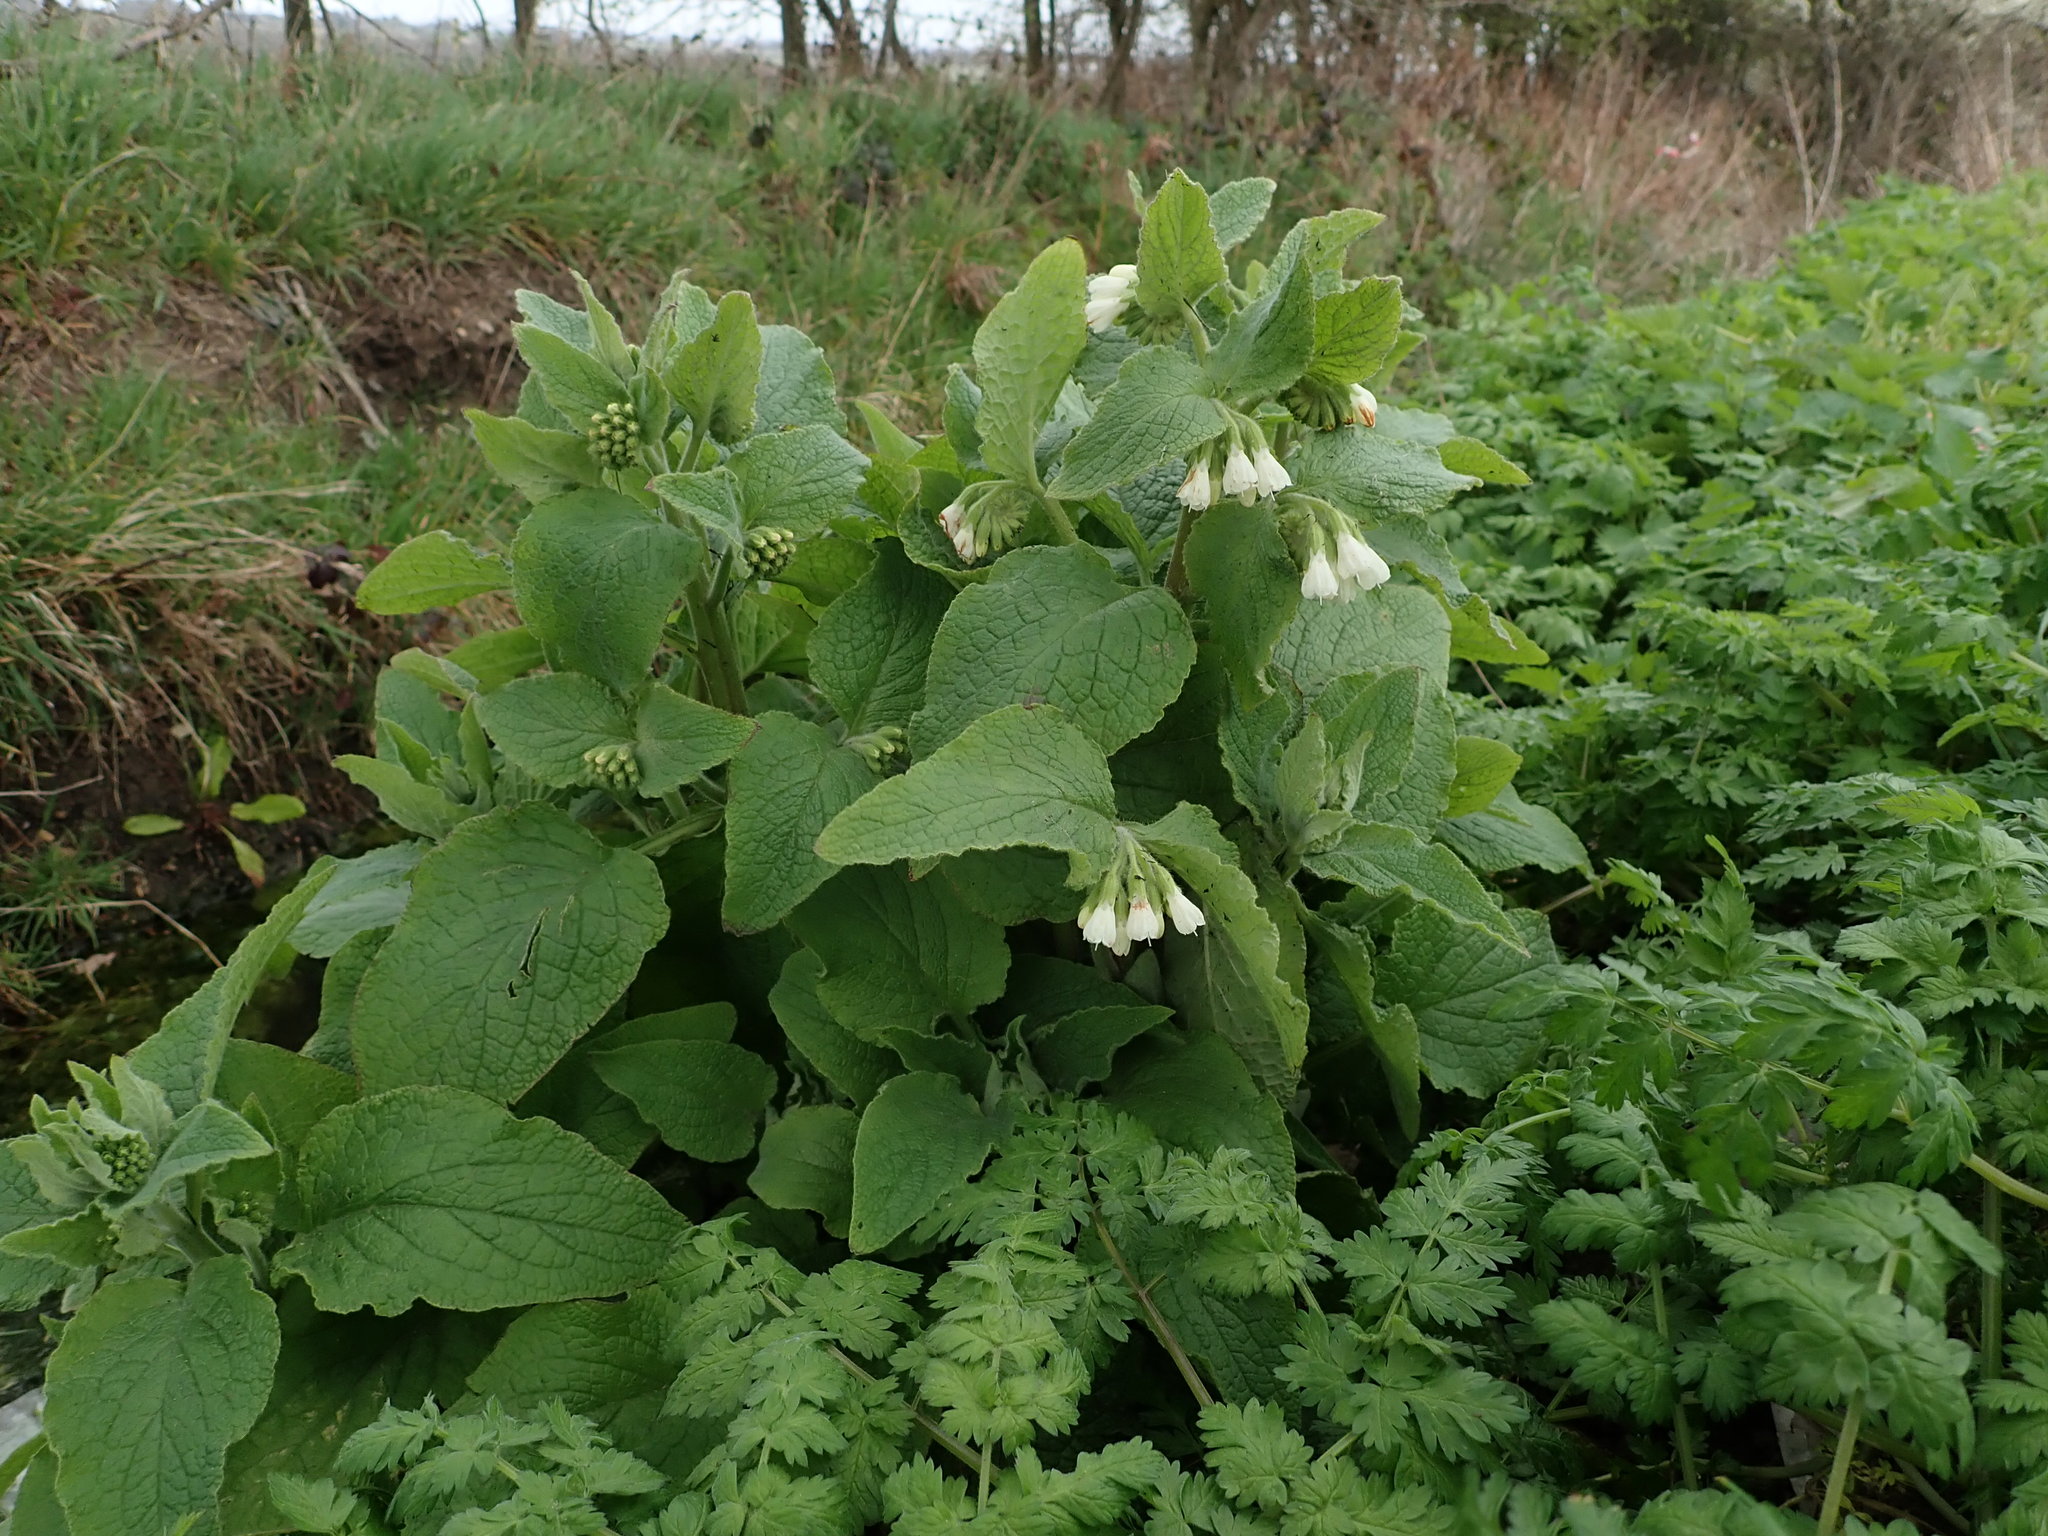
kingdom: Plantae
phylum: Tracheophyta
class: Magnoliopsida
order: Boraginales
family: Boraginaceae
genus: Symphytum
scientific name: Symphytum orientale
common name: White comfrey
